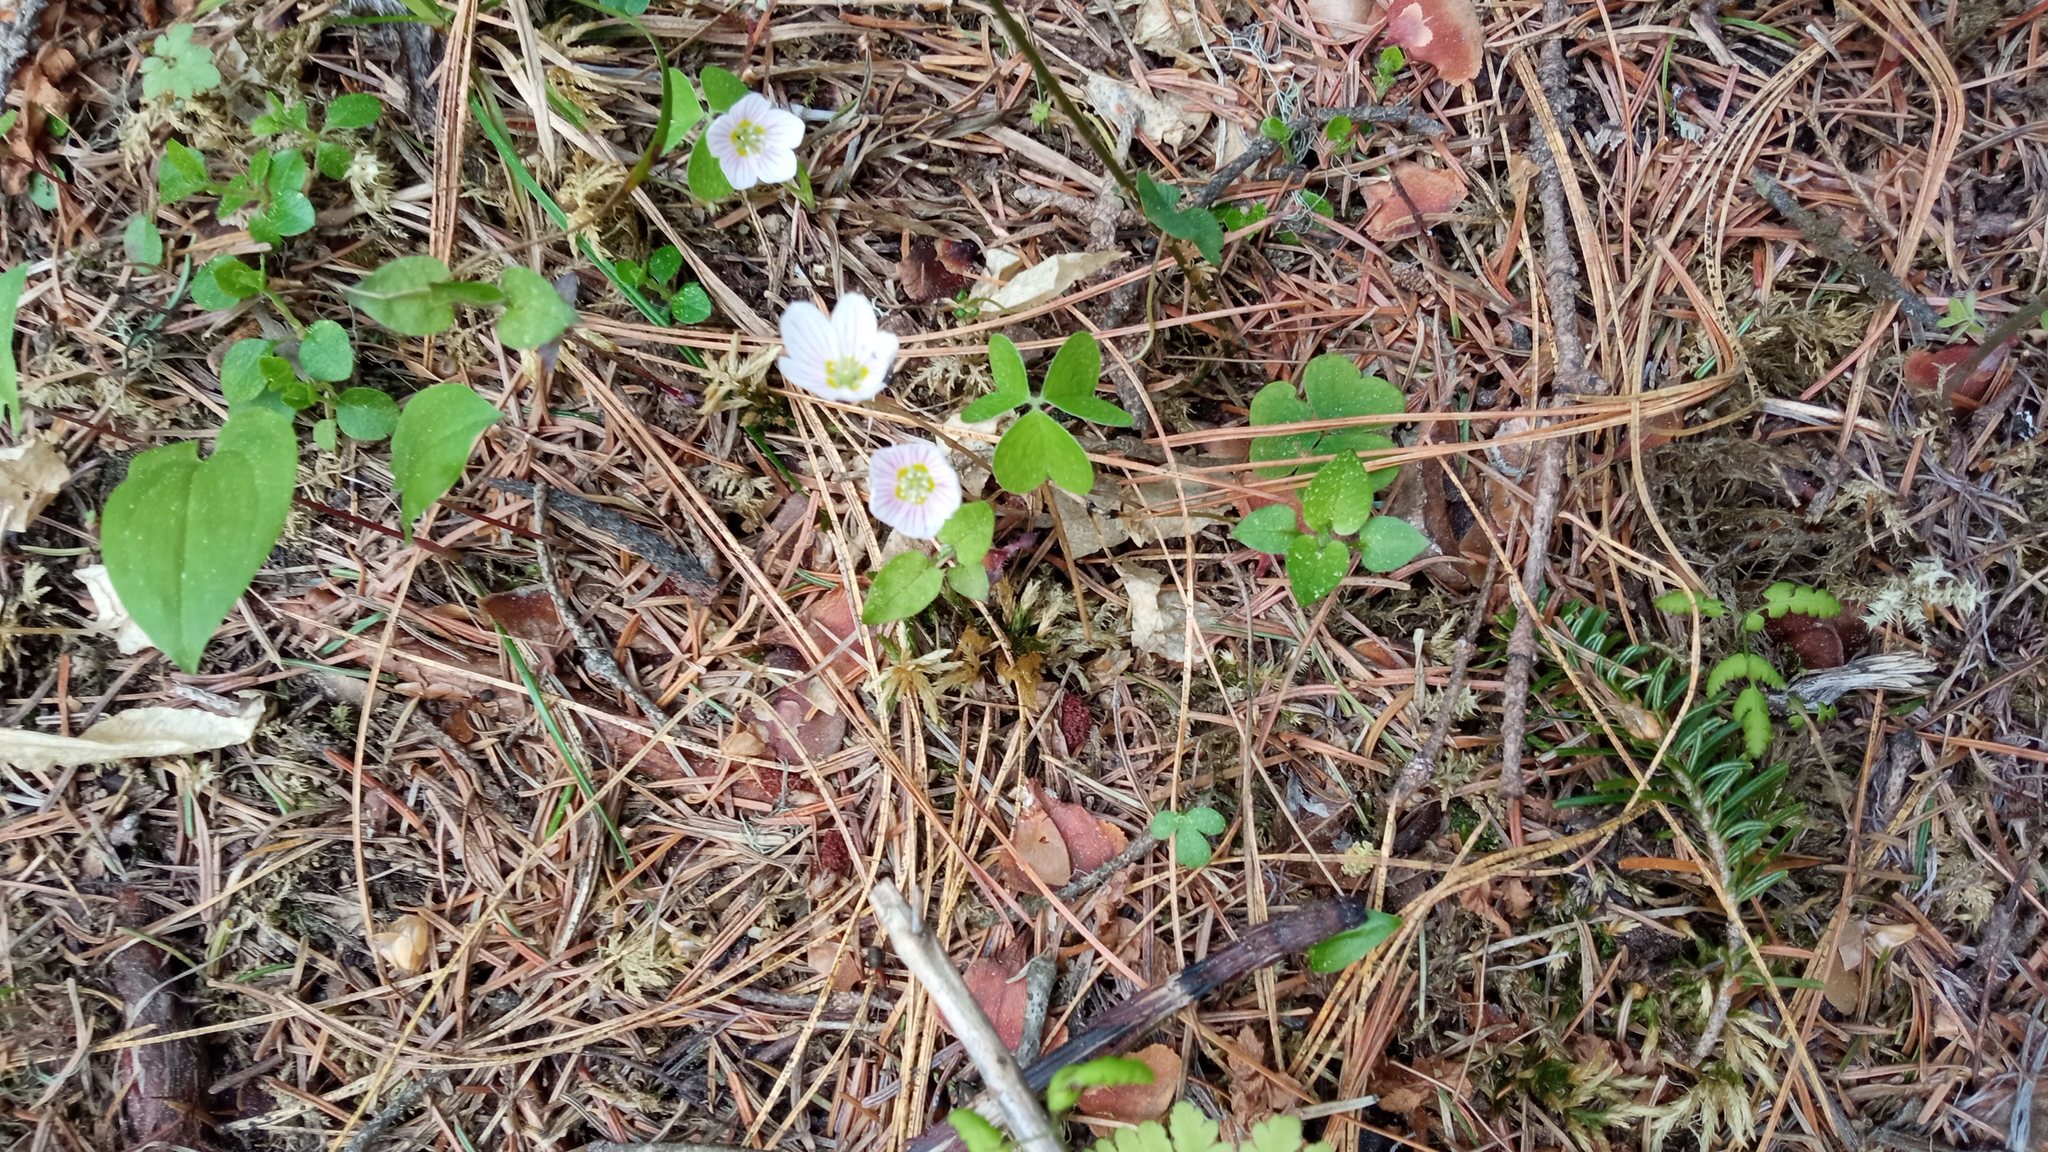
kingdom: Plantae
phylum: Tracheophyta
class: Magnoliopsida
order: Oxalidales
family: Oxalidaceae
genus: Oxalis
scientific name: Oxalis acetosella
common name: Wood-sorrel
